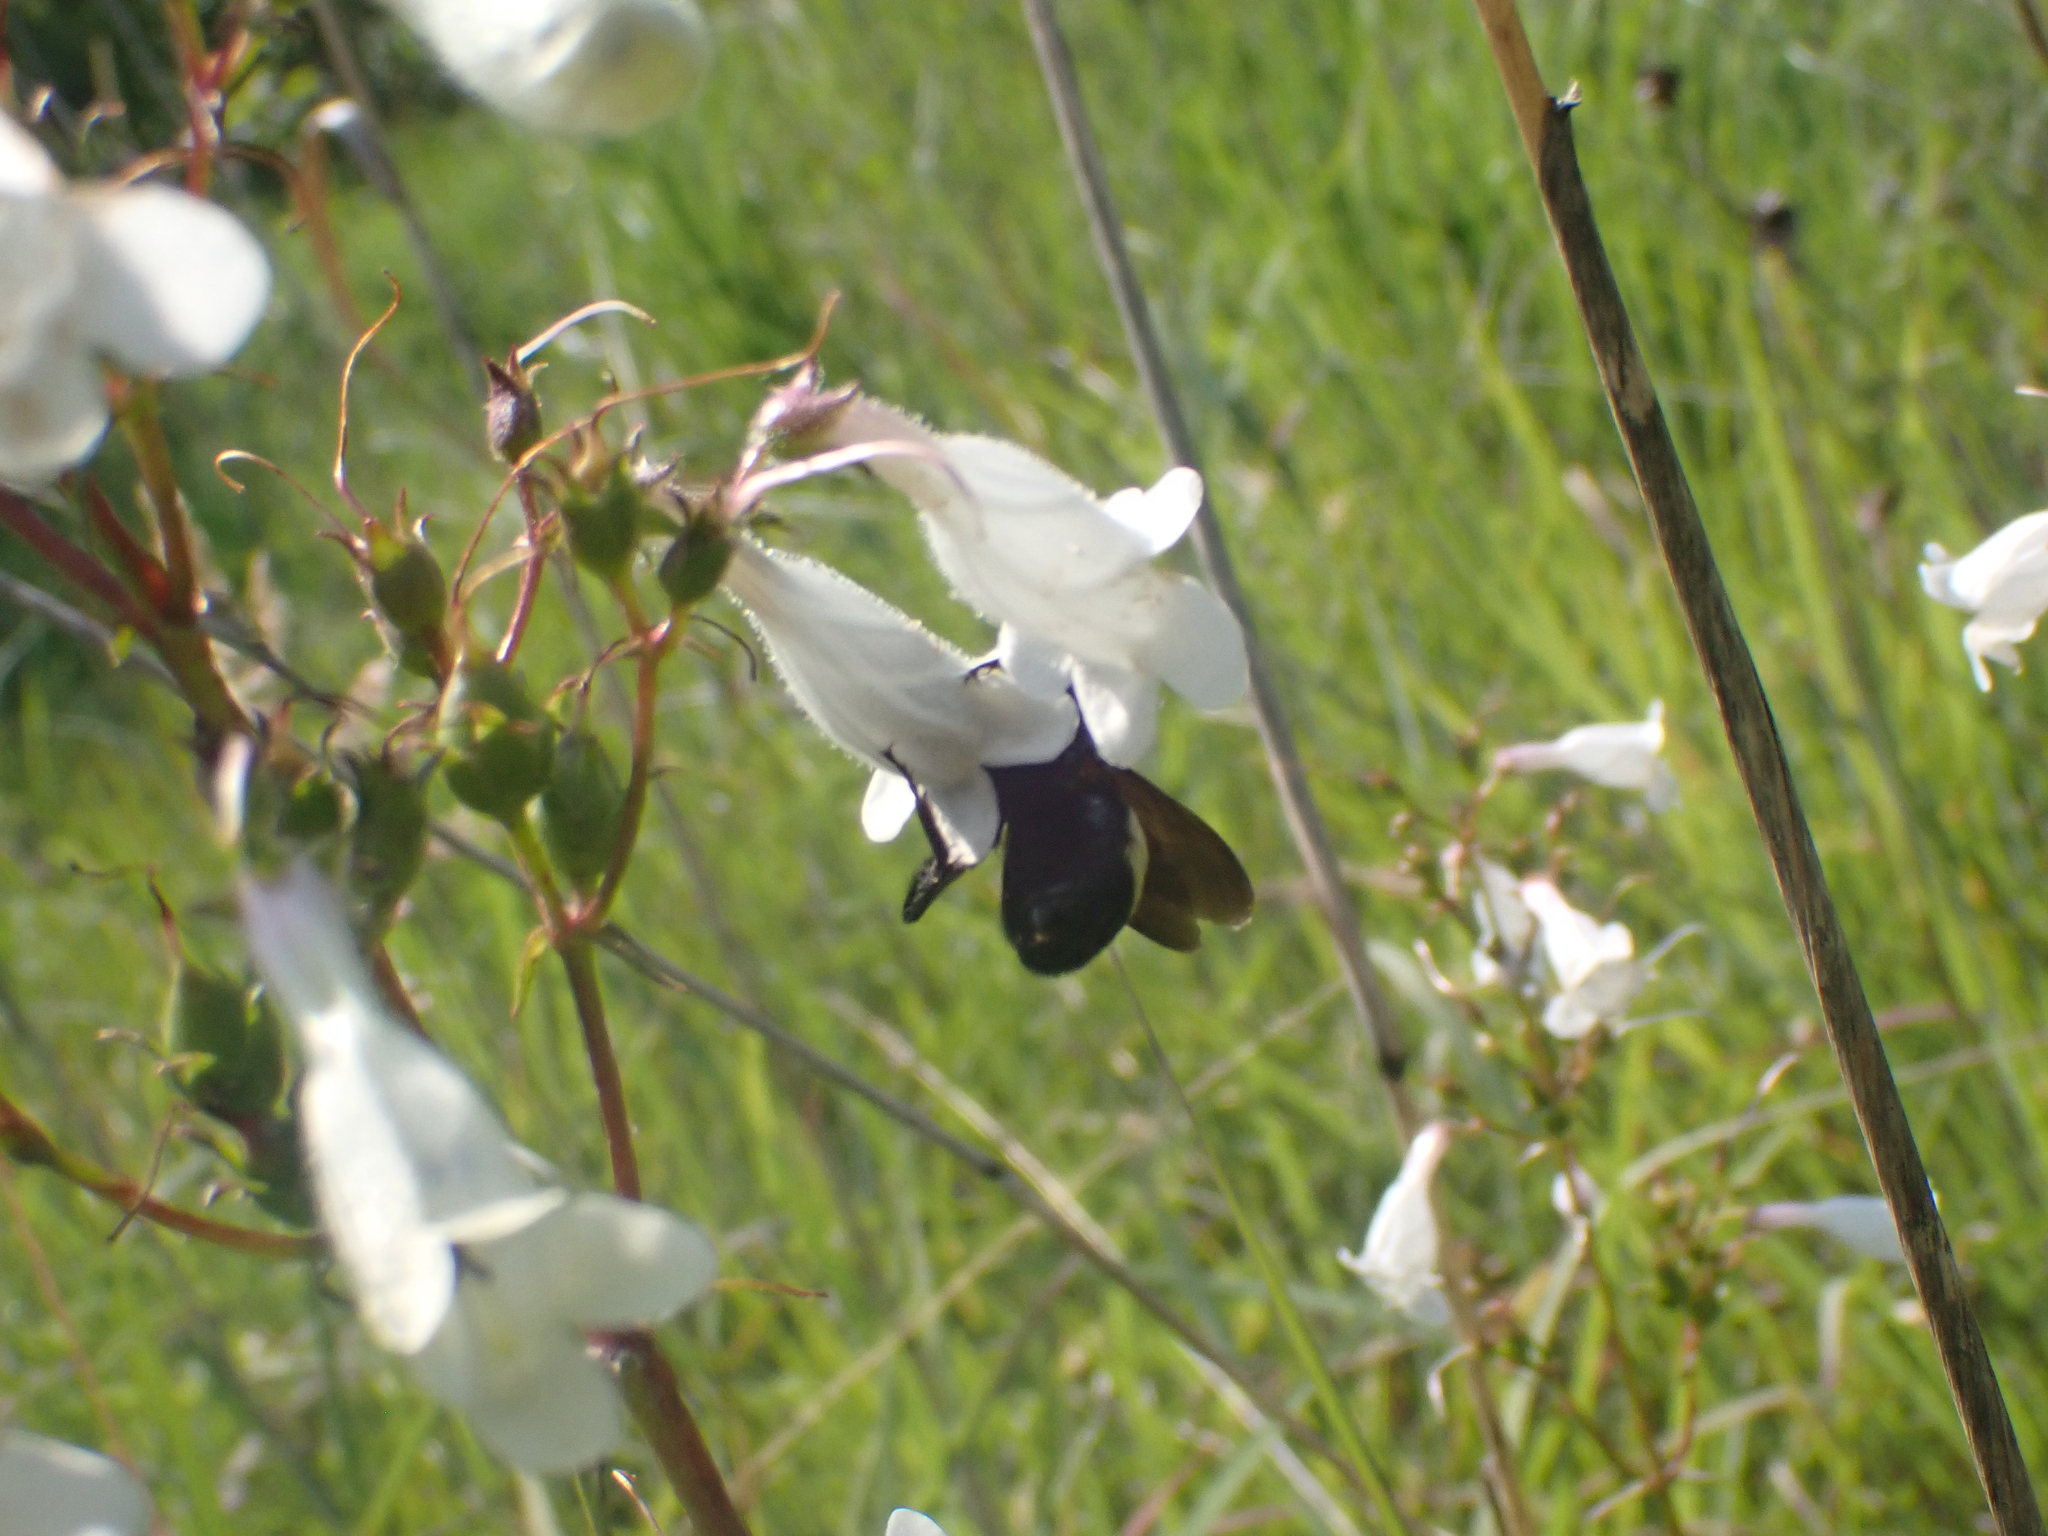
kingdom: Animalia
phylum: Arthropoda
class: Insecta
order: Hymenoptera
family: Apidae
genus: Bombus
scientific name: Bombus
